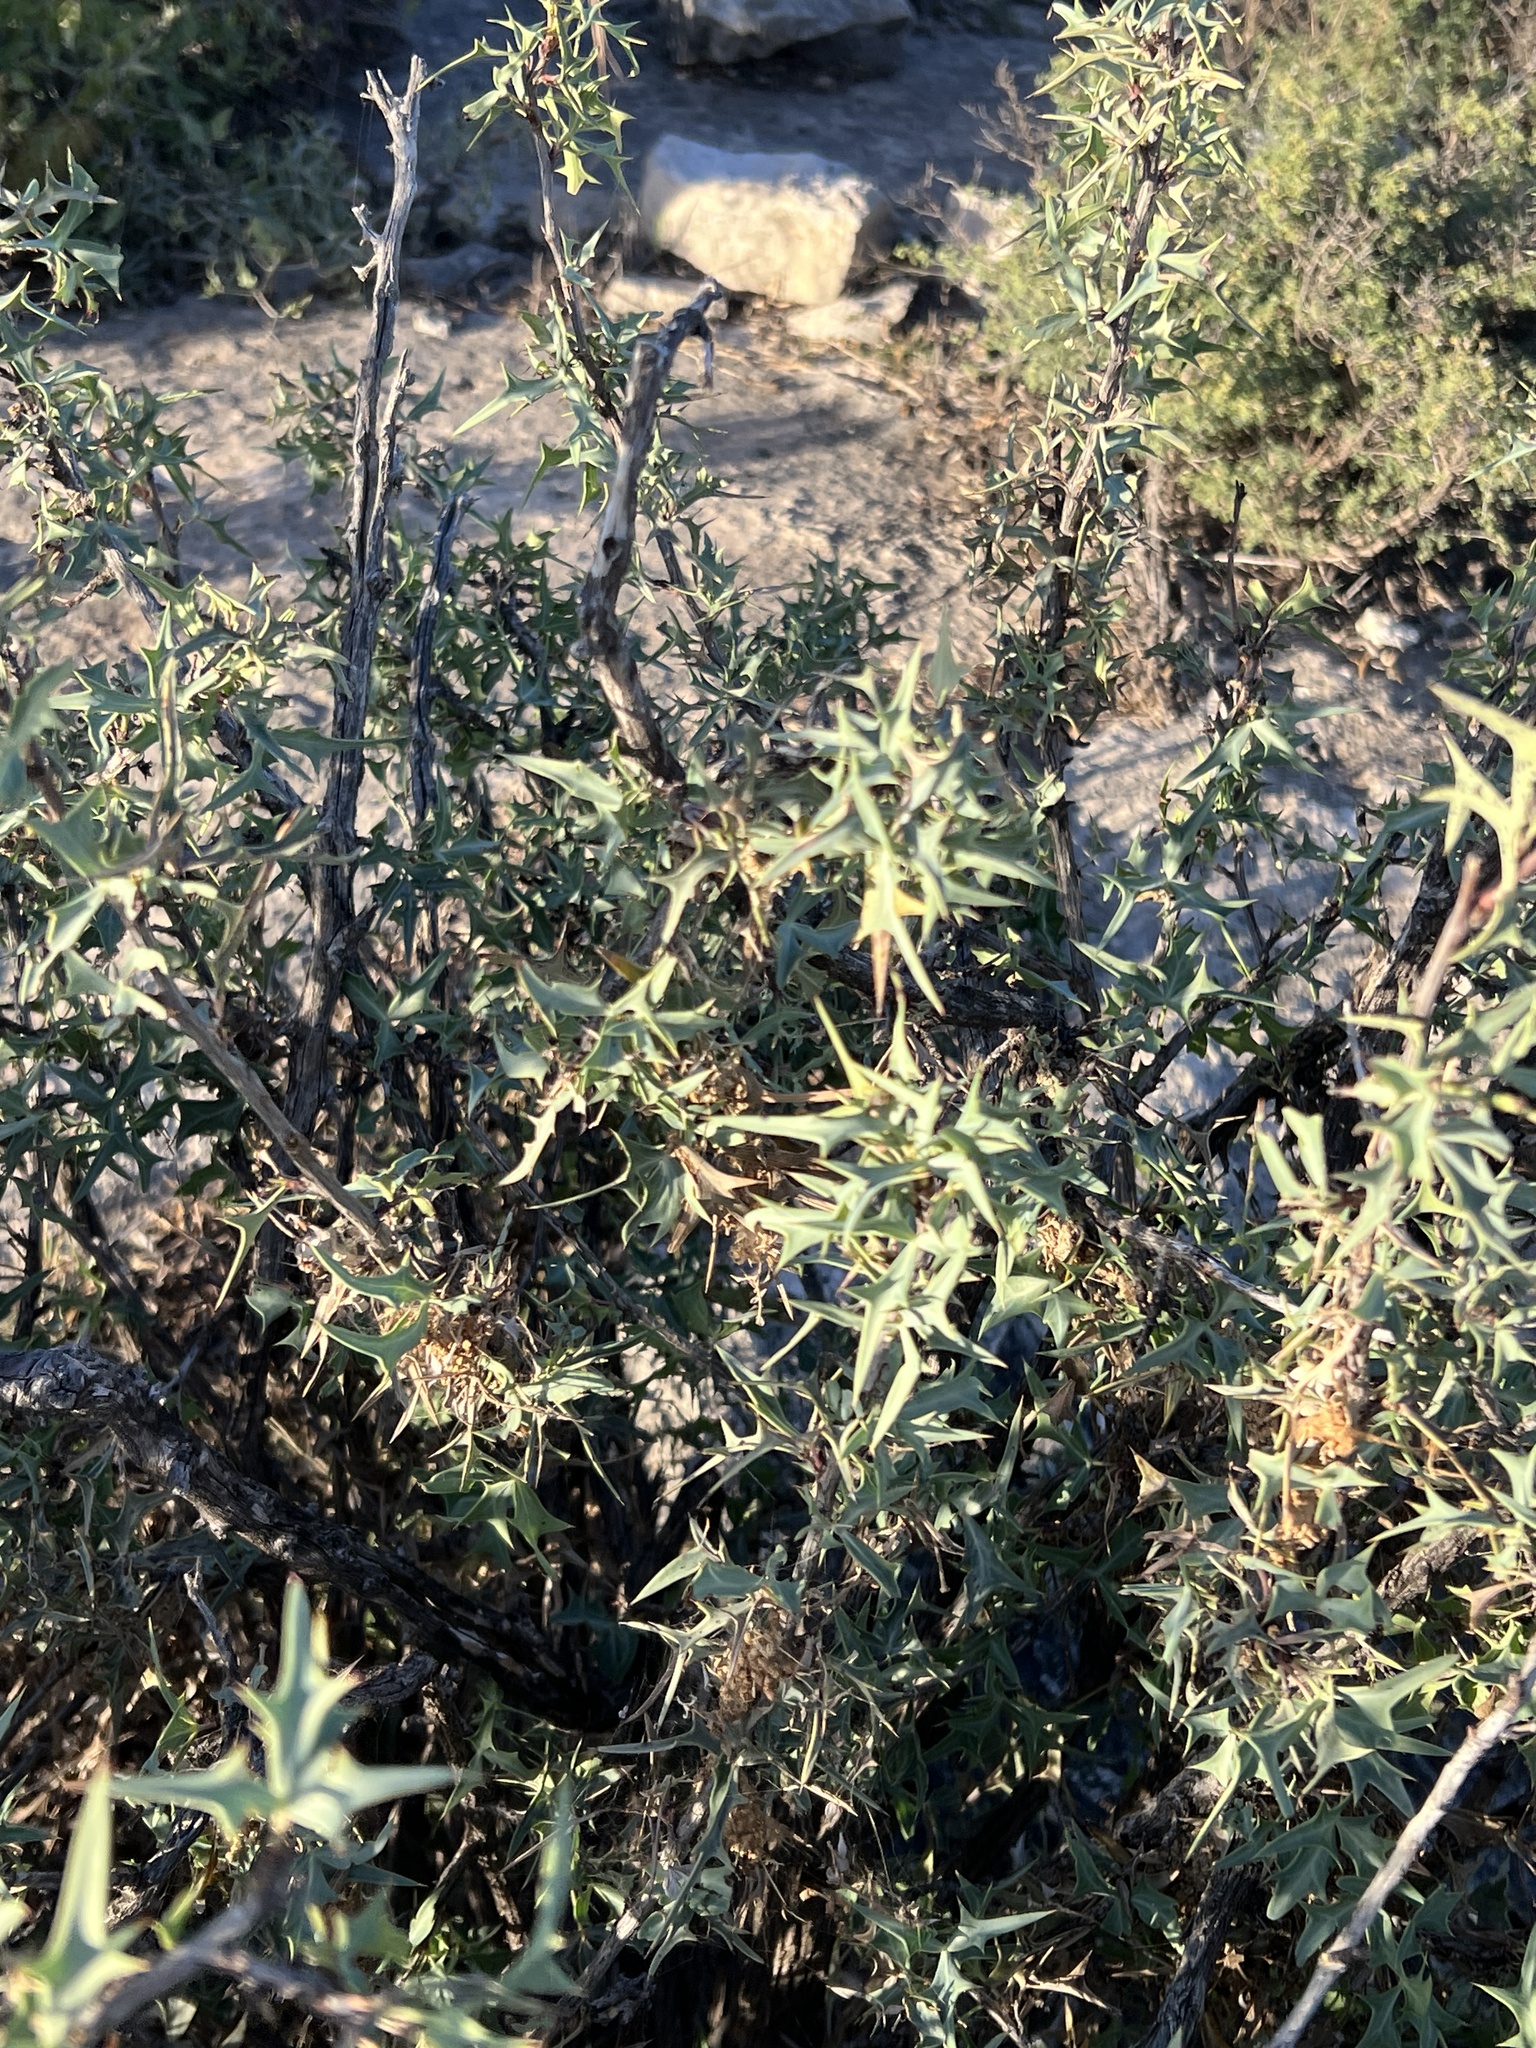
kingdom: Plantae
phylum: Tracheophyta
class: Magnoliopsida
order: Ranunculales
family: Berberidaceae
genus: Alloberberis
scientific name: Alloberberis trifoliolata
